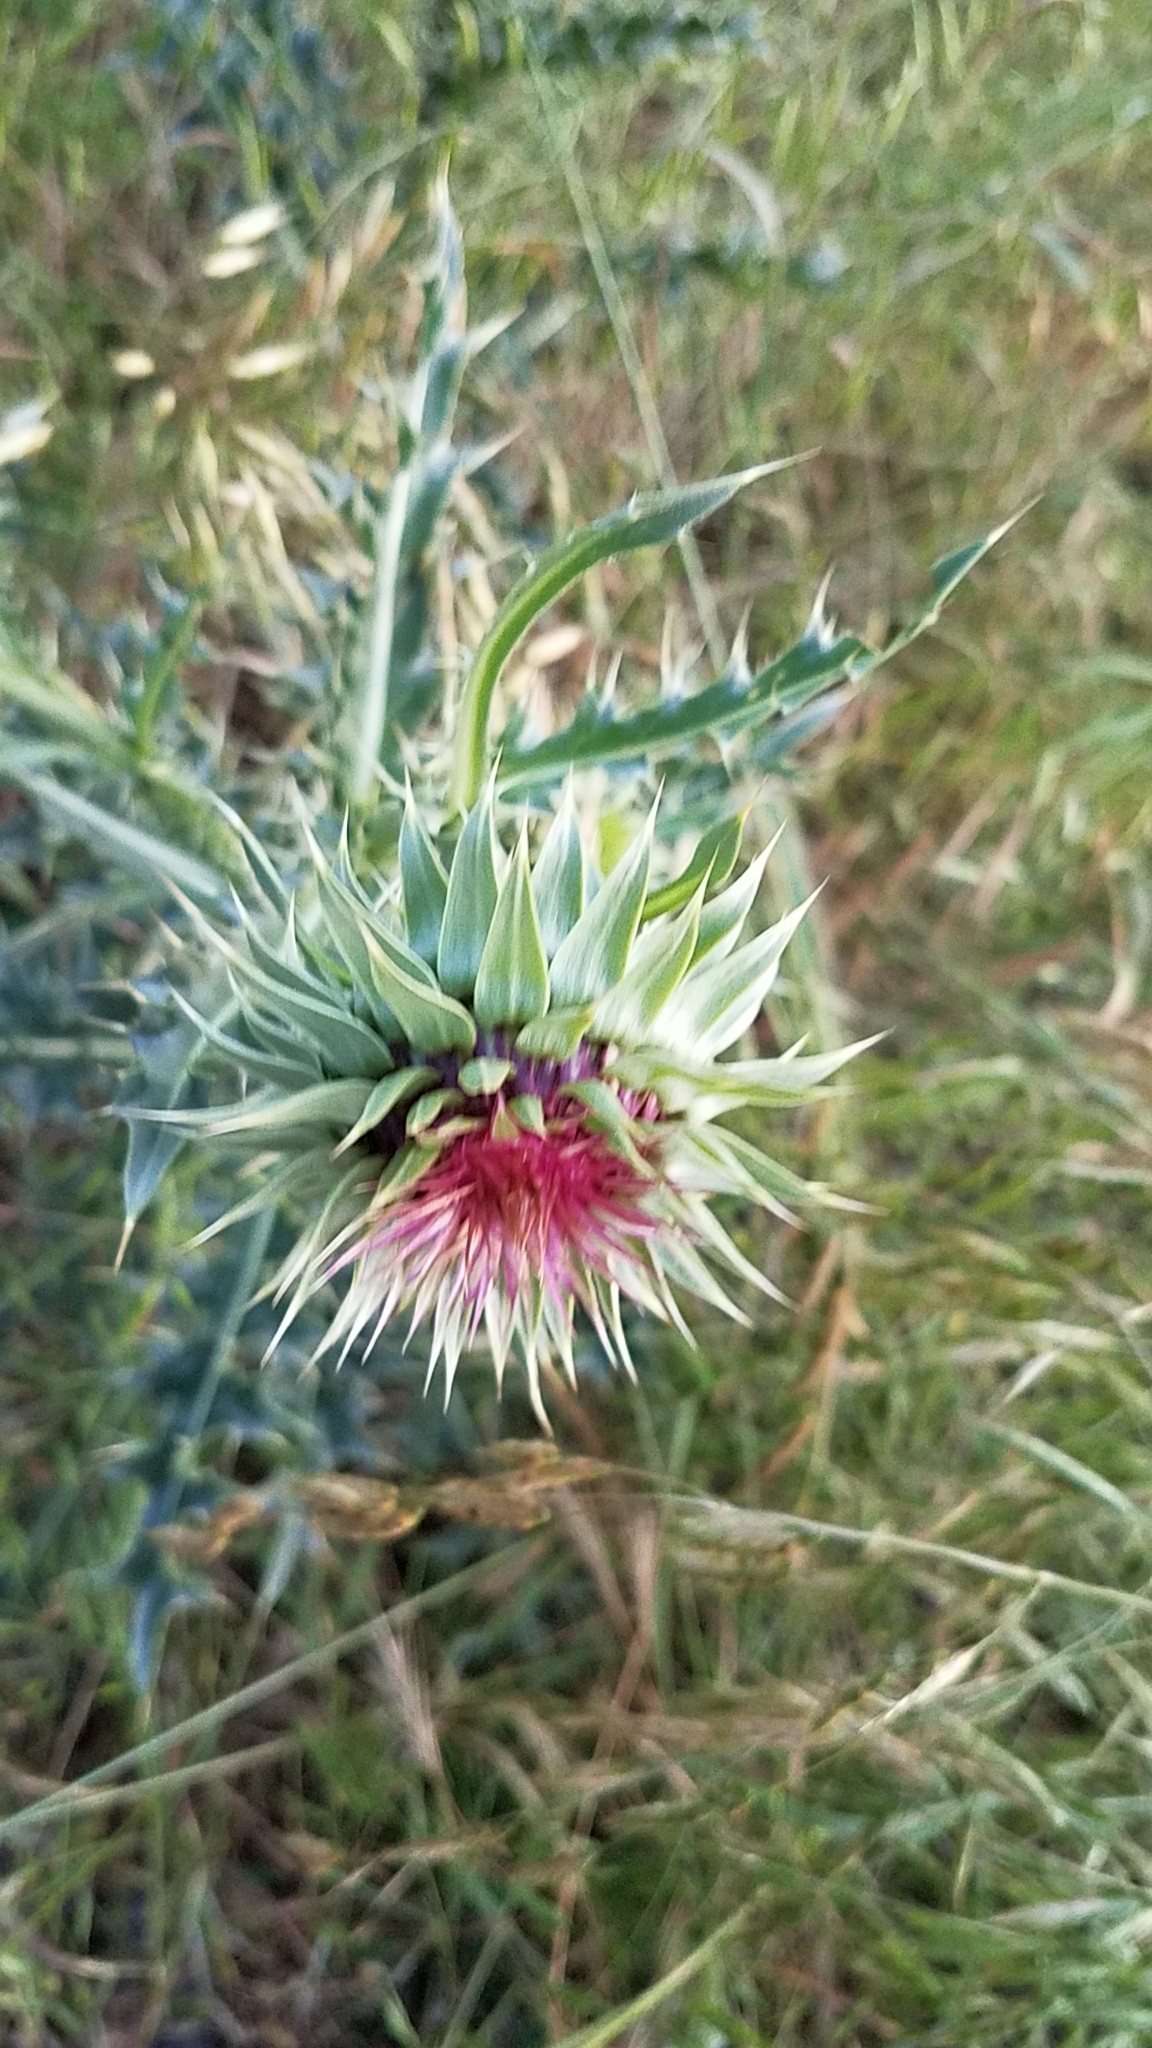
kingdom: Plantae
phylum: Tracheophyta
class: Magnoliopsida
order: Asterales
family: Asteraceae
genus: Carduus
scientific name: Carduus nutans
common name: Musk thistle
